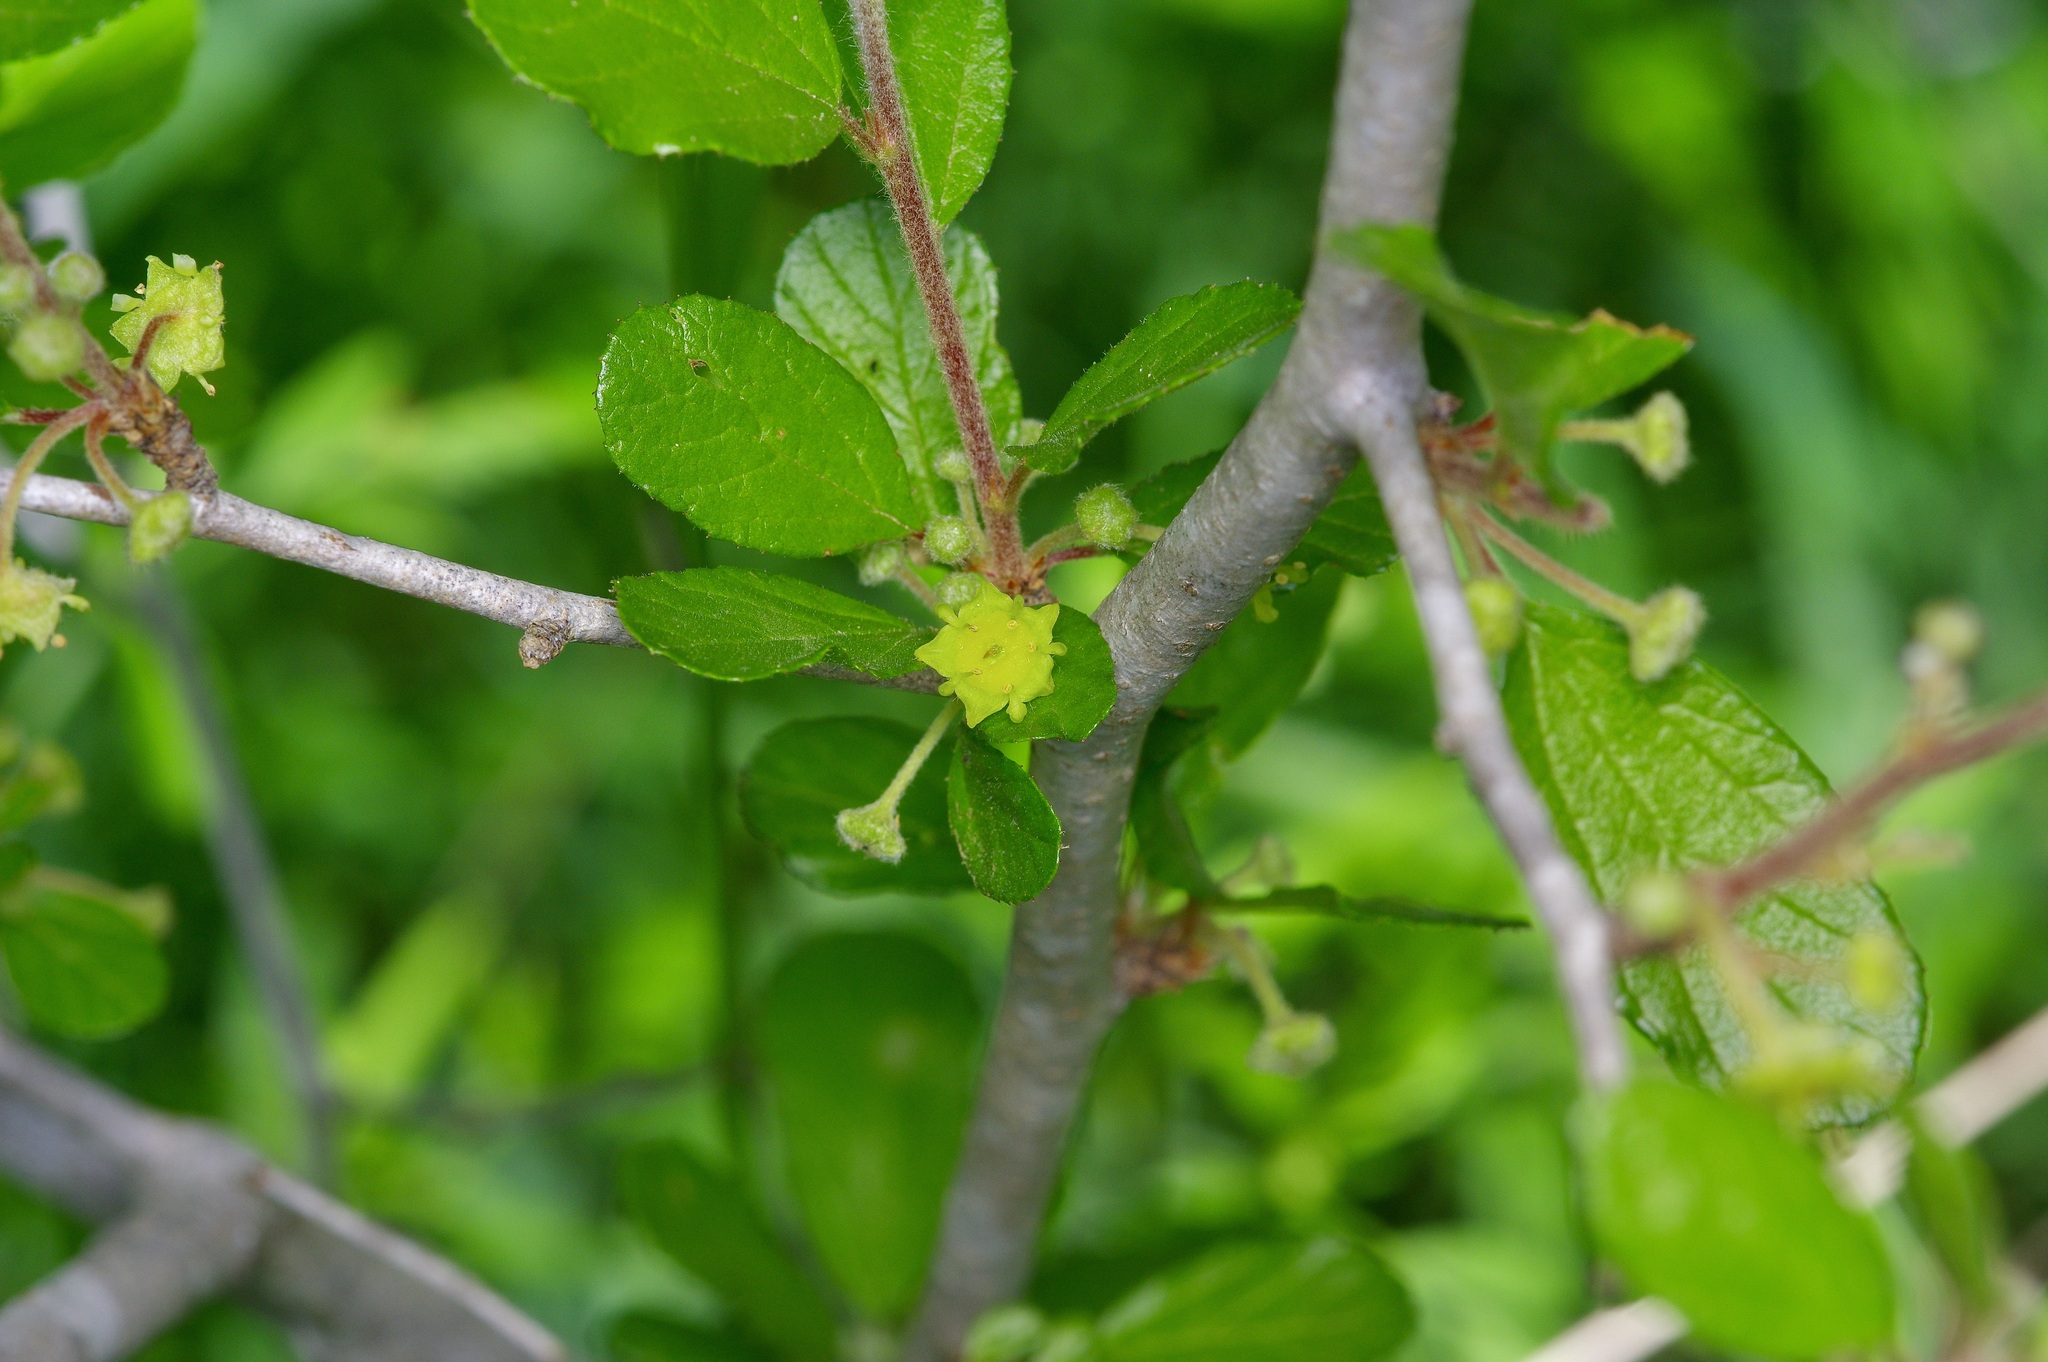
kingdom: Plantae
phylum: Tracheophyta
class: Magnoliopsida
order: Rosales
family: Rhamnaceae
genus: Colubrina
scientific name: Colubrina texensis
